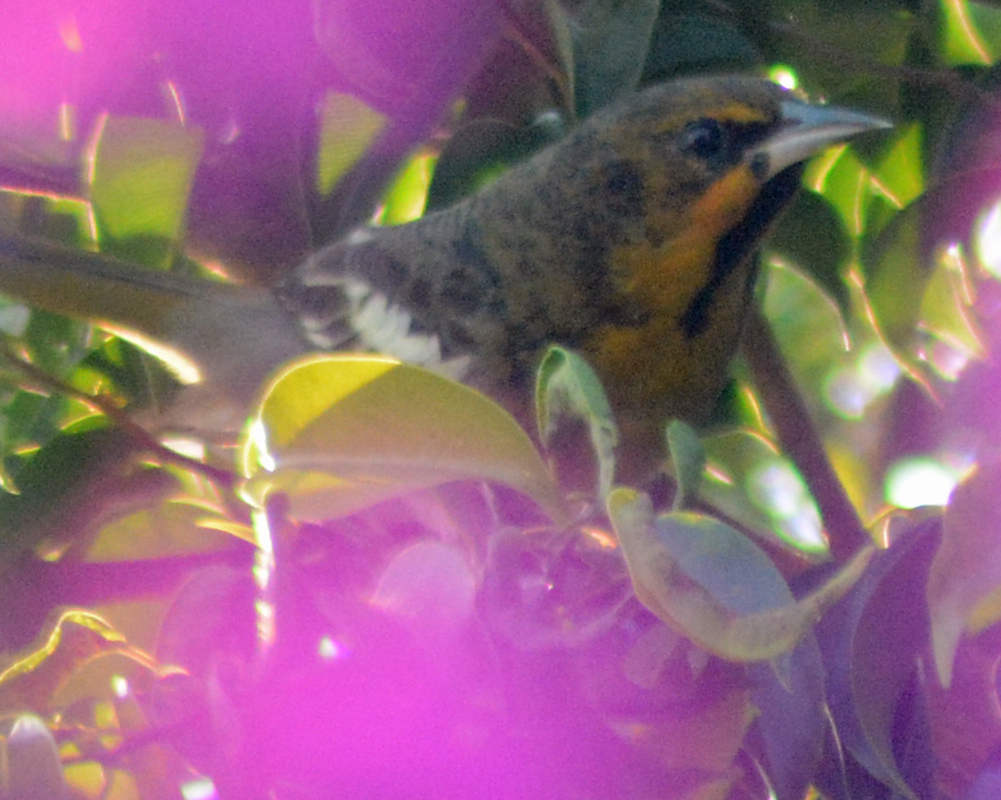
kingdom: Animalia
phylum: Chordata
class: Aves
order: Passeriformes
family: Icteridae
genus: Icterus
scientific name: Icterus abeillei
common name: Black-backed oriole
